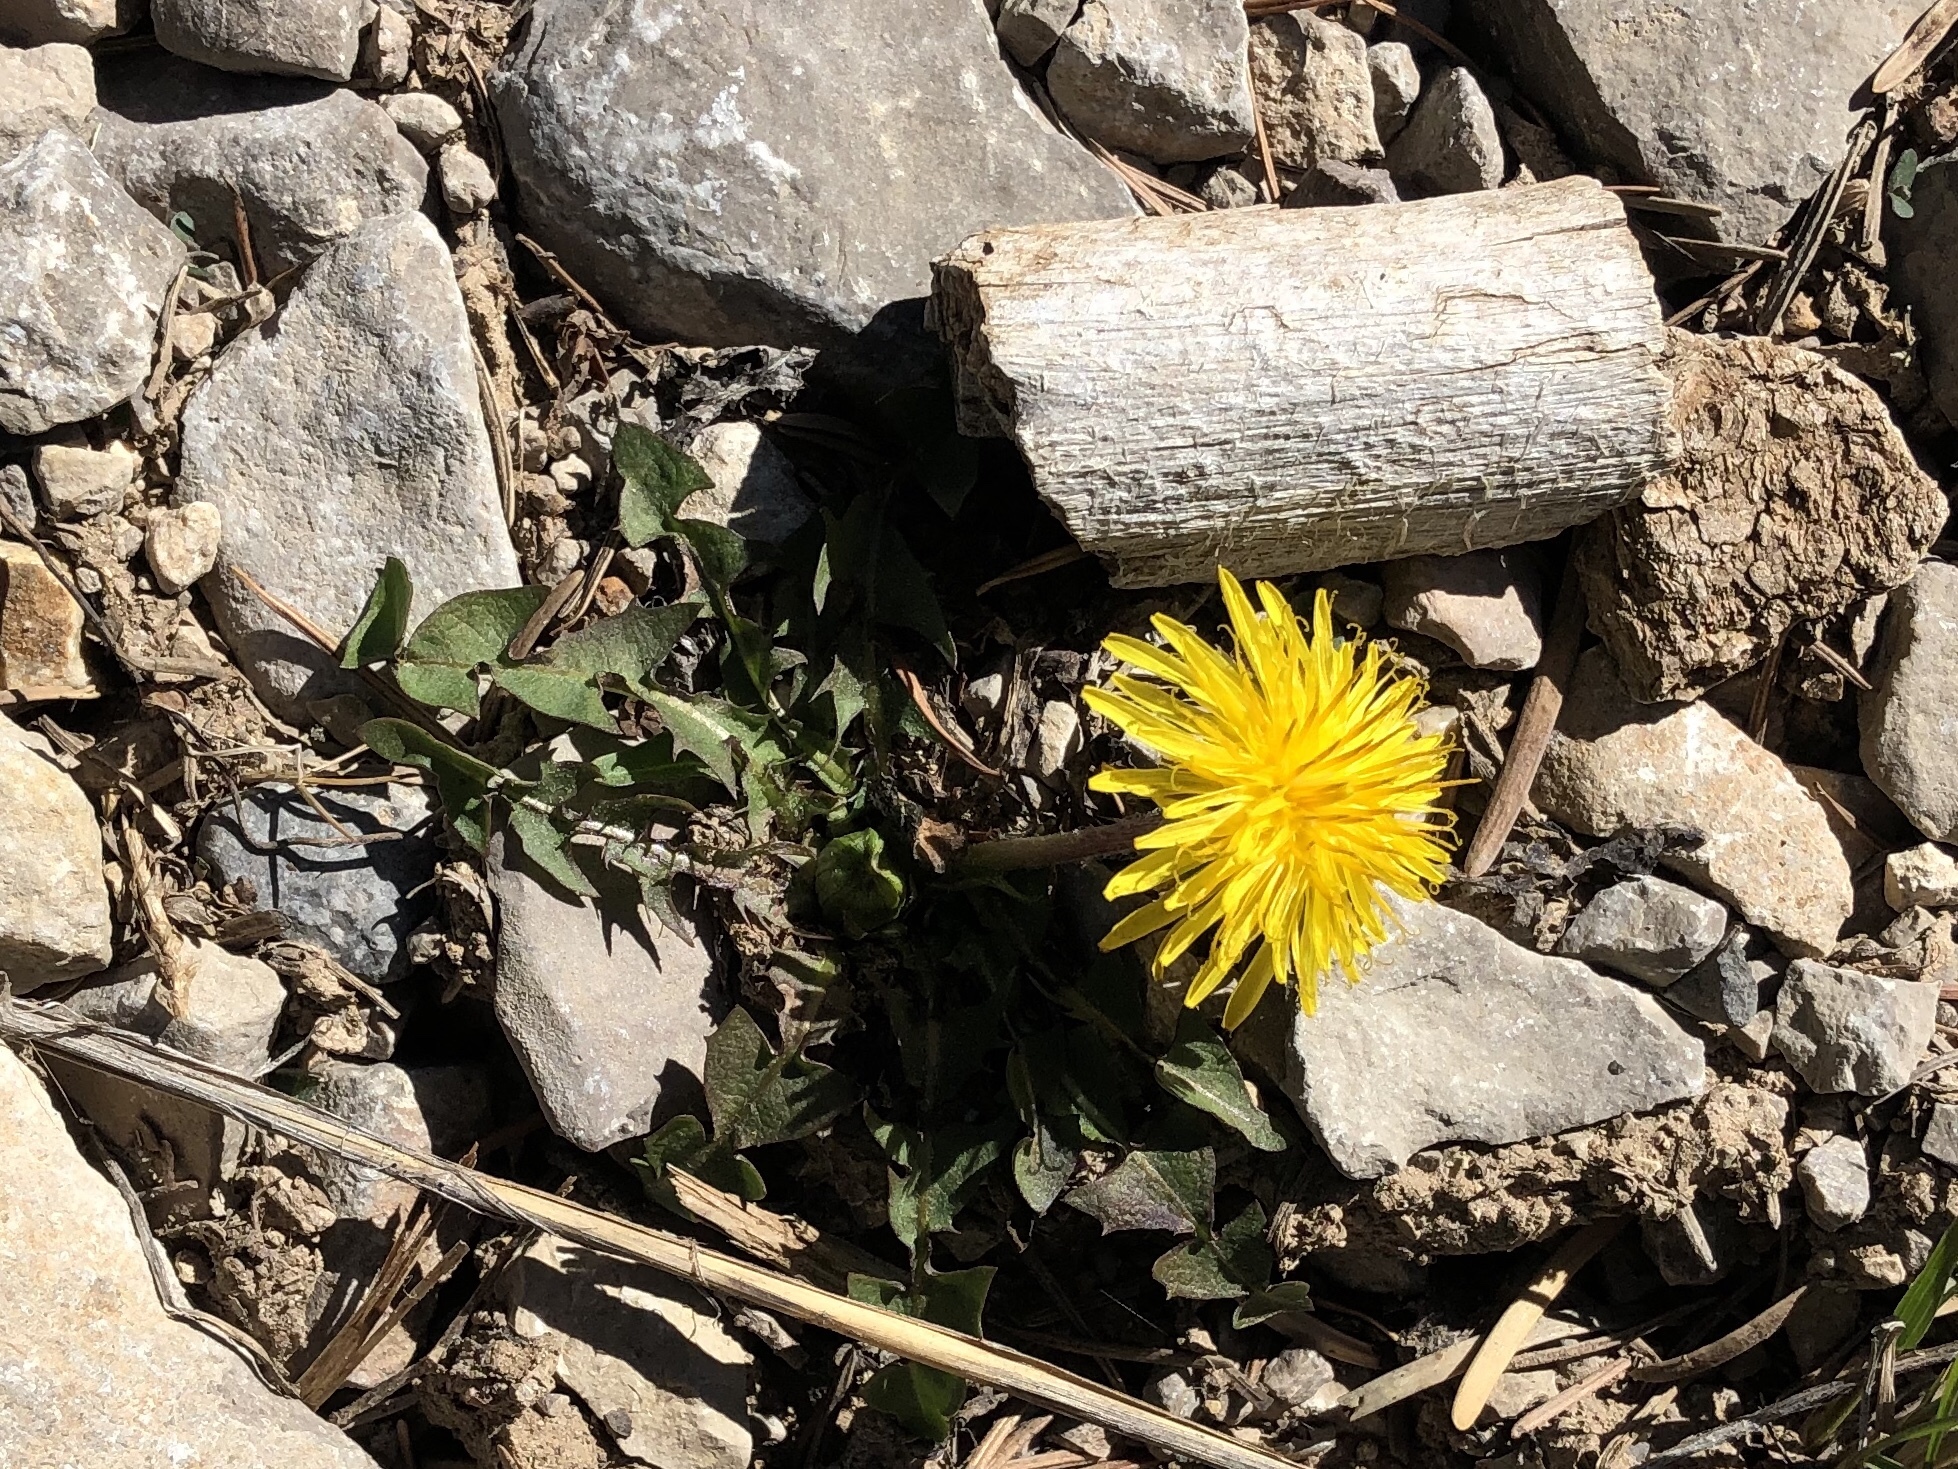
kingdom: Plantae
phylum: Tracheophyta
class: Magnoliopsida
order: Asterales
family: Asteraceae
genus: Taraxacum
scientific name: Taraxacum officinale
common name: Common dandelion
